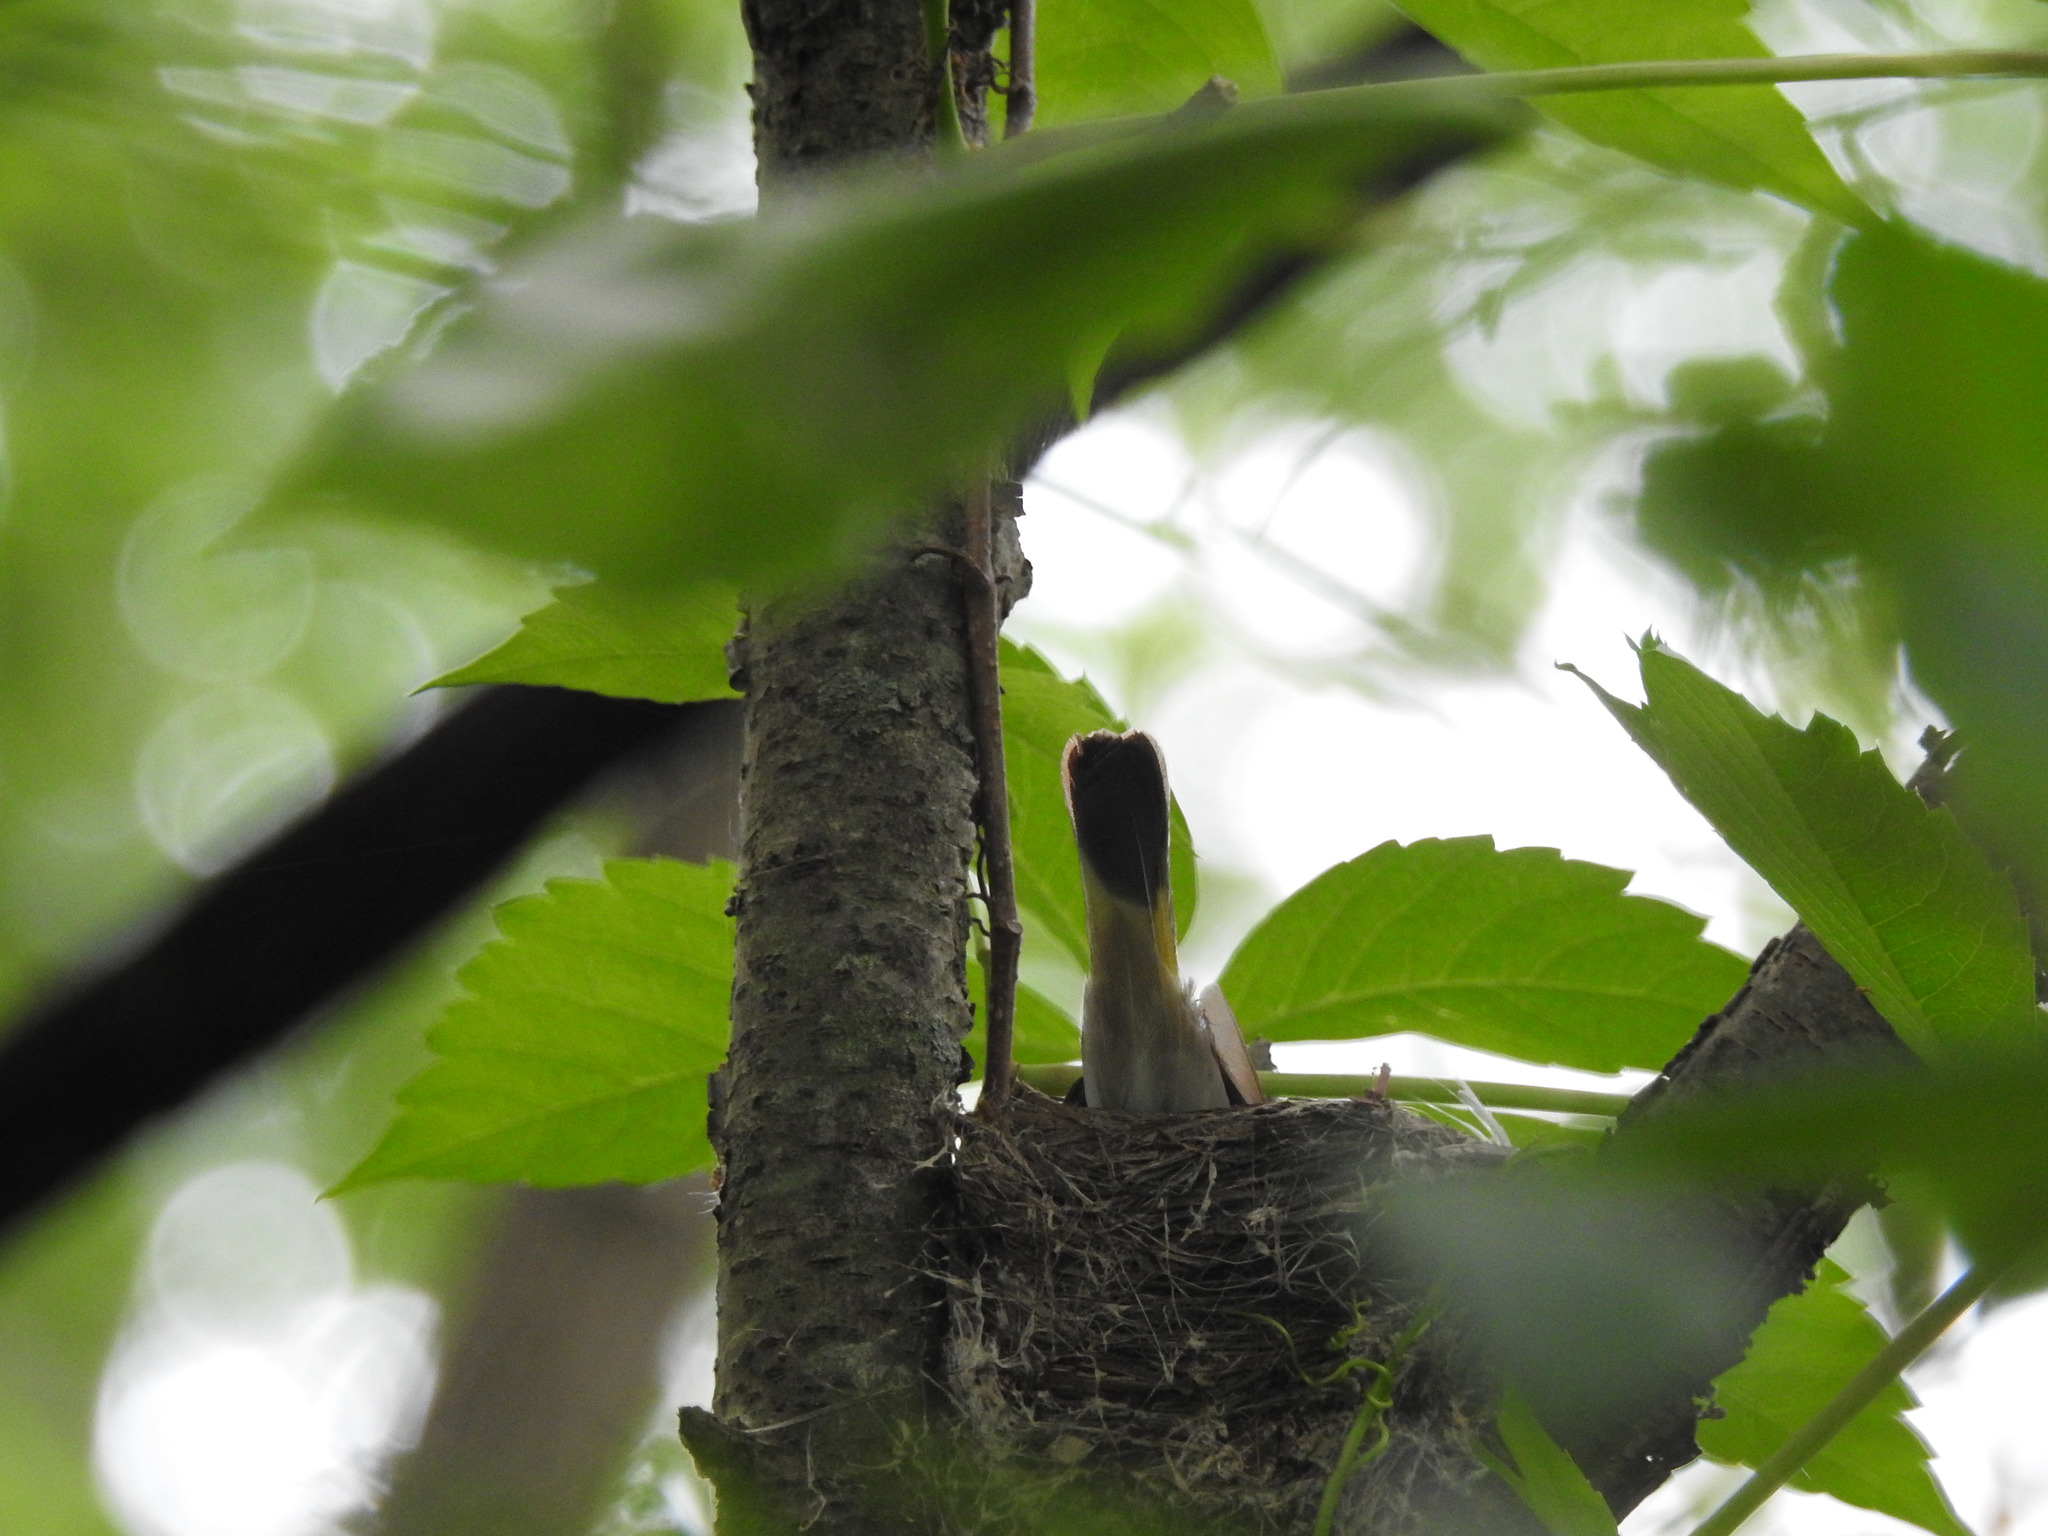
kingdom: Animalia
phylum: Chordata
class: Aves
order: Passeriformes
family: Parulidae
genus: Setophaga
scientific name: Setophaga ruticilla
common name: American redstart
